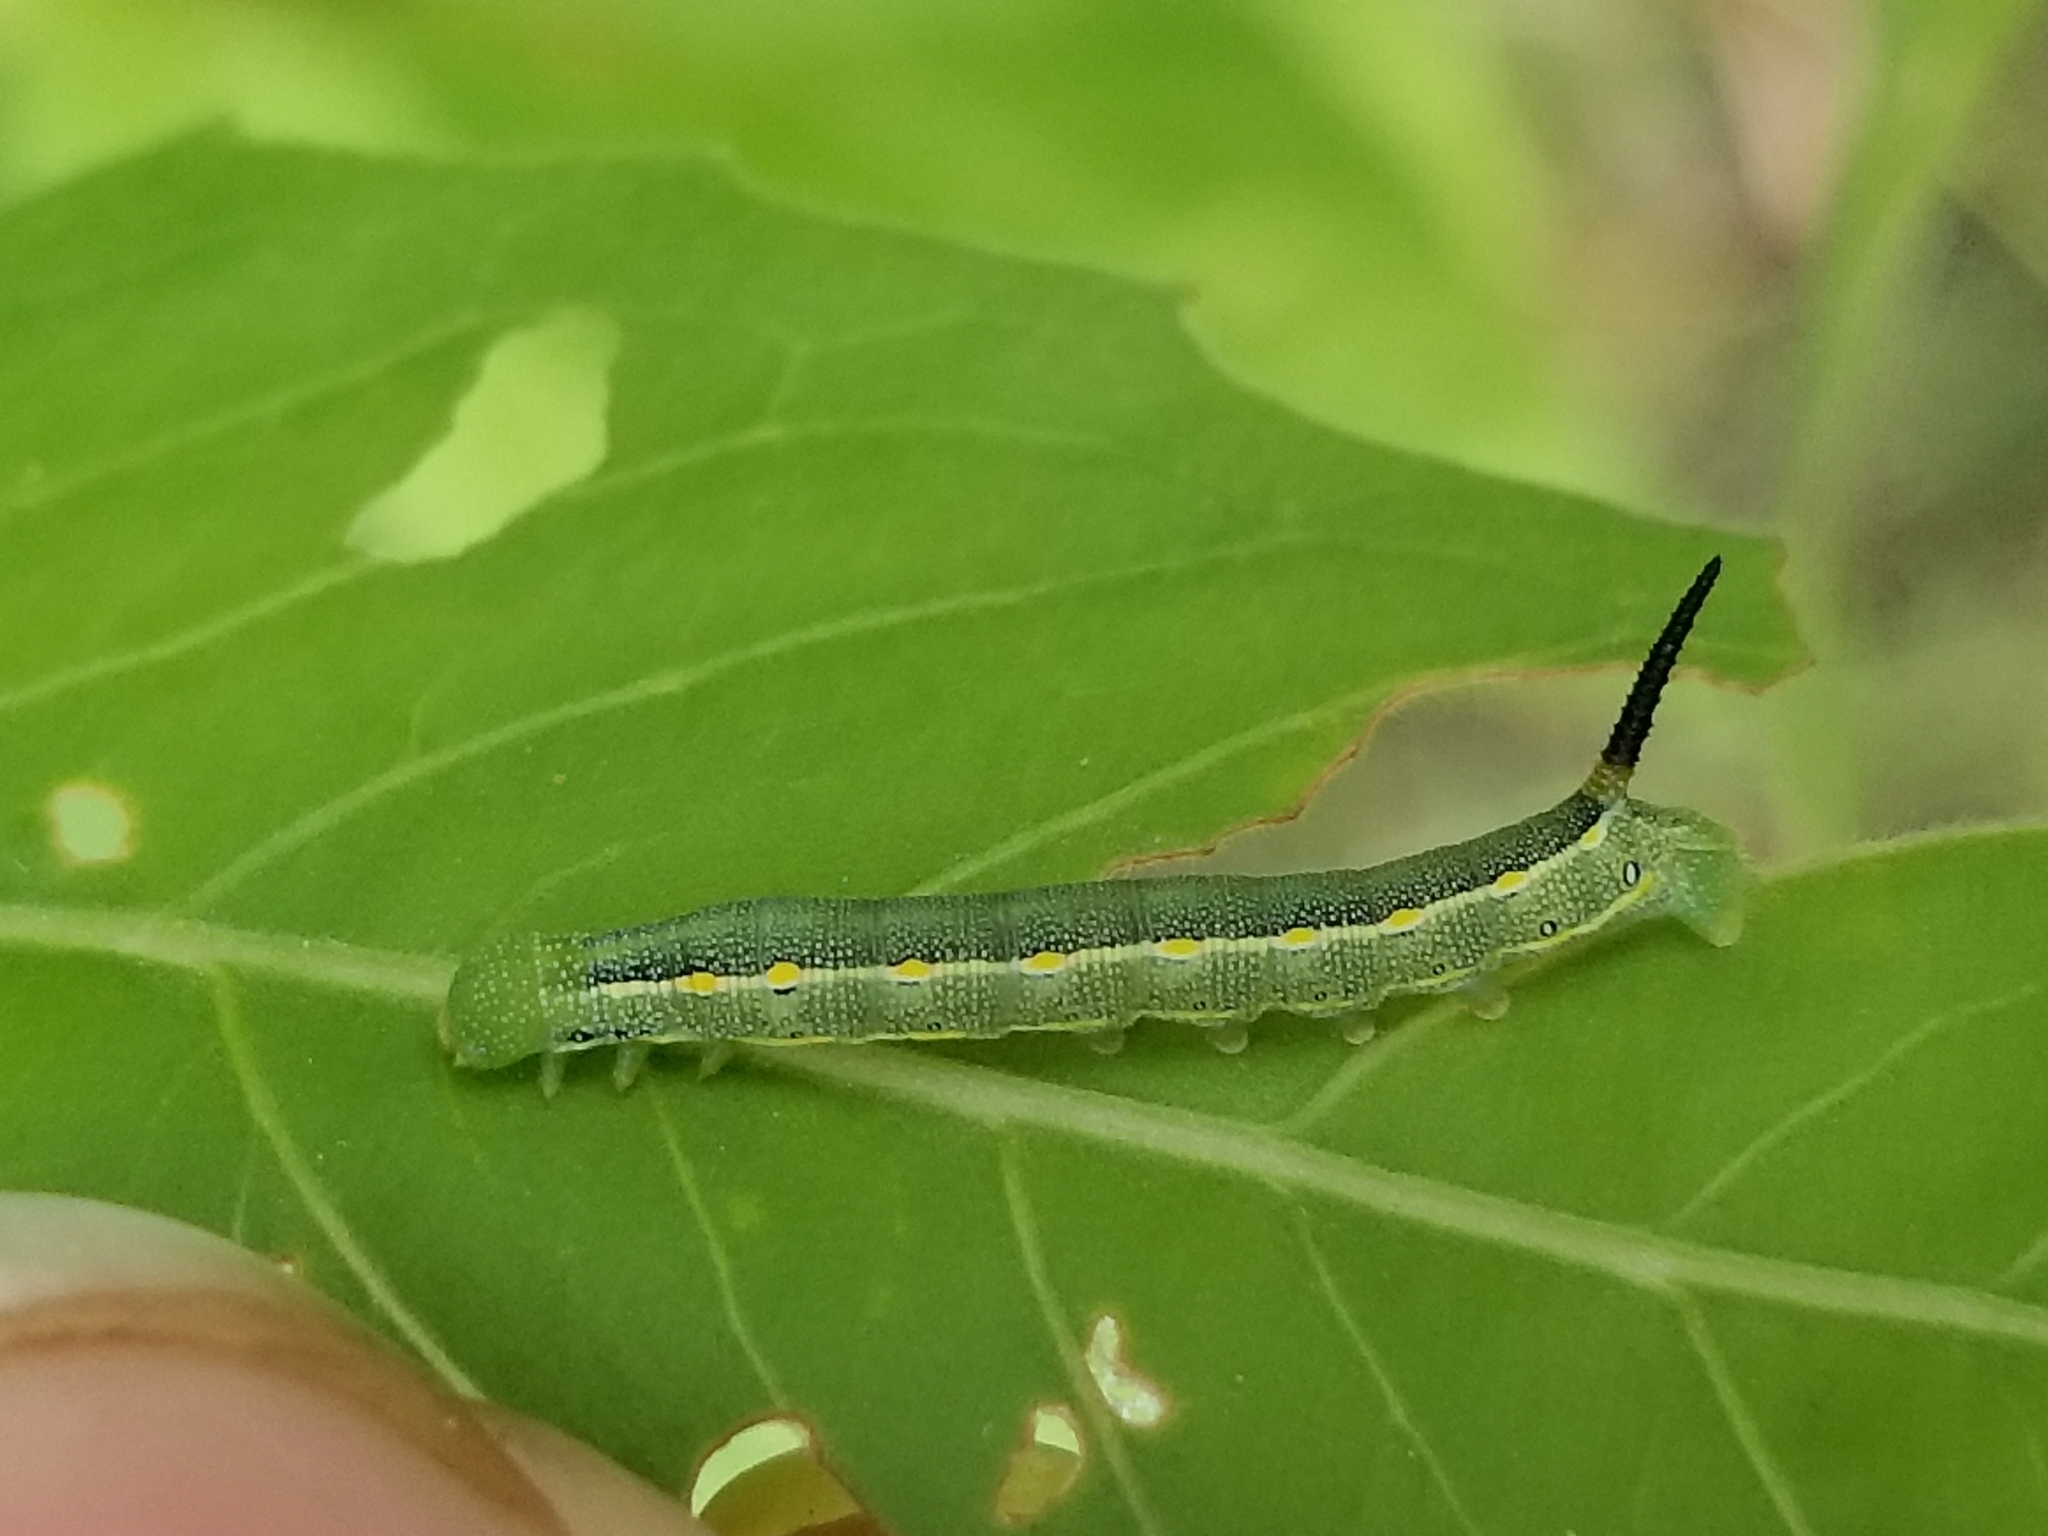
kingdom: Animalia
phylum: Arthropoda
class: Insecta
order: Lepidoptera
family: Sphingidae
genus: Hyles
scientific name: Hyles lineata
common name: White-lined sphinx
